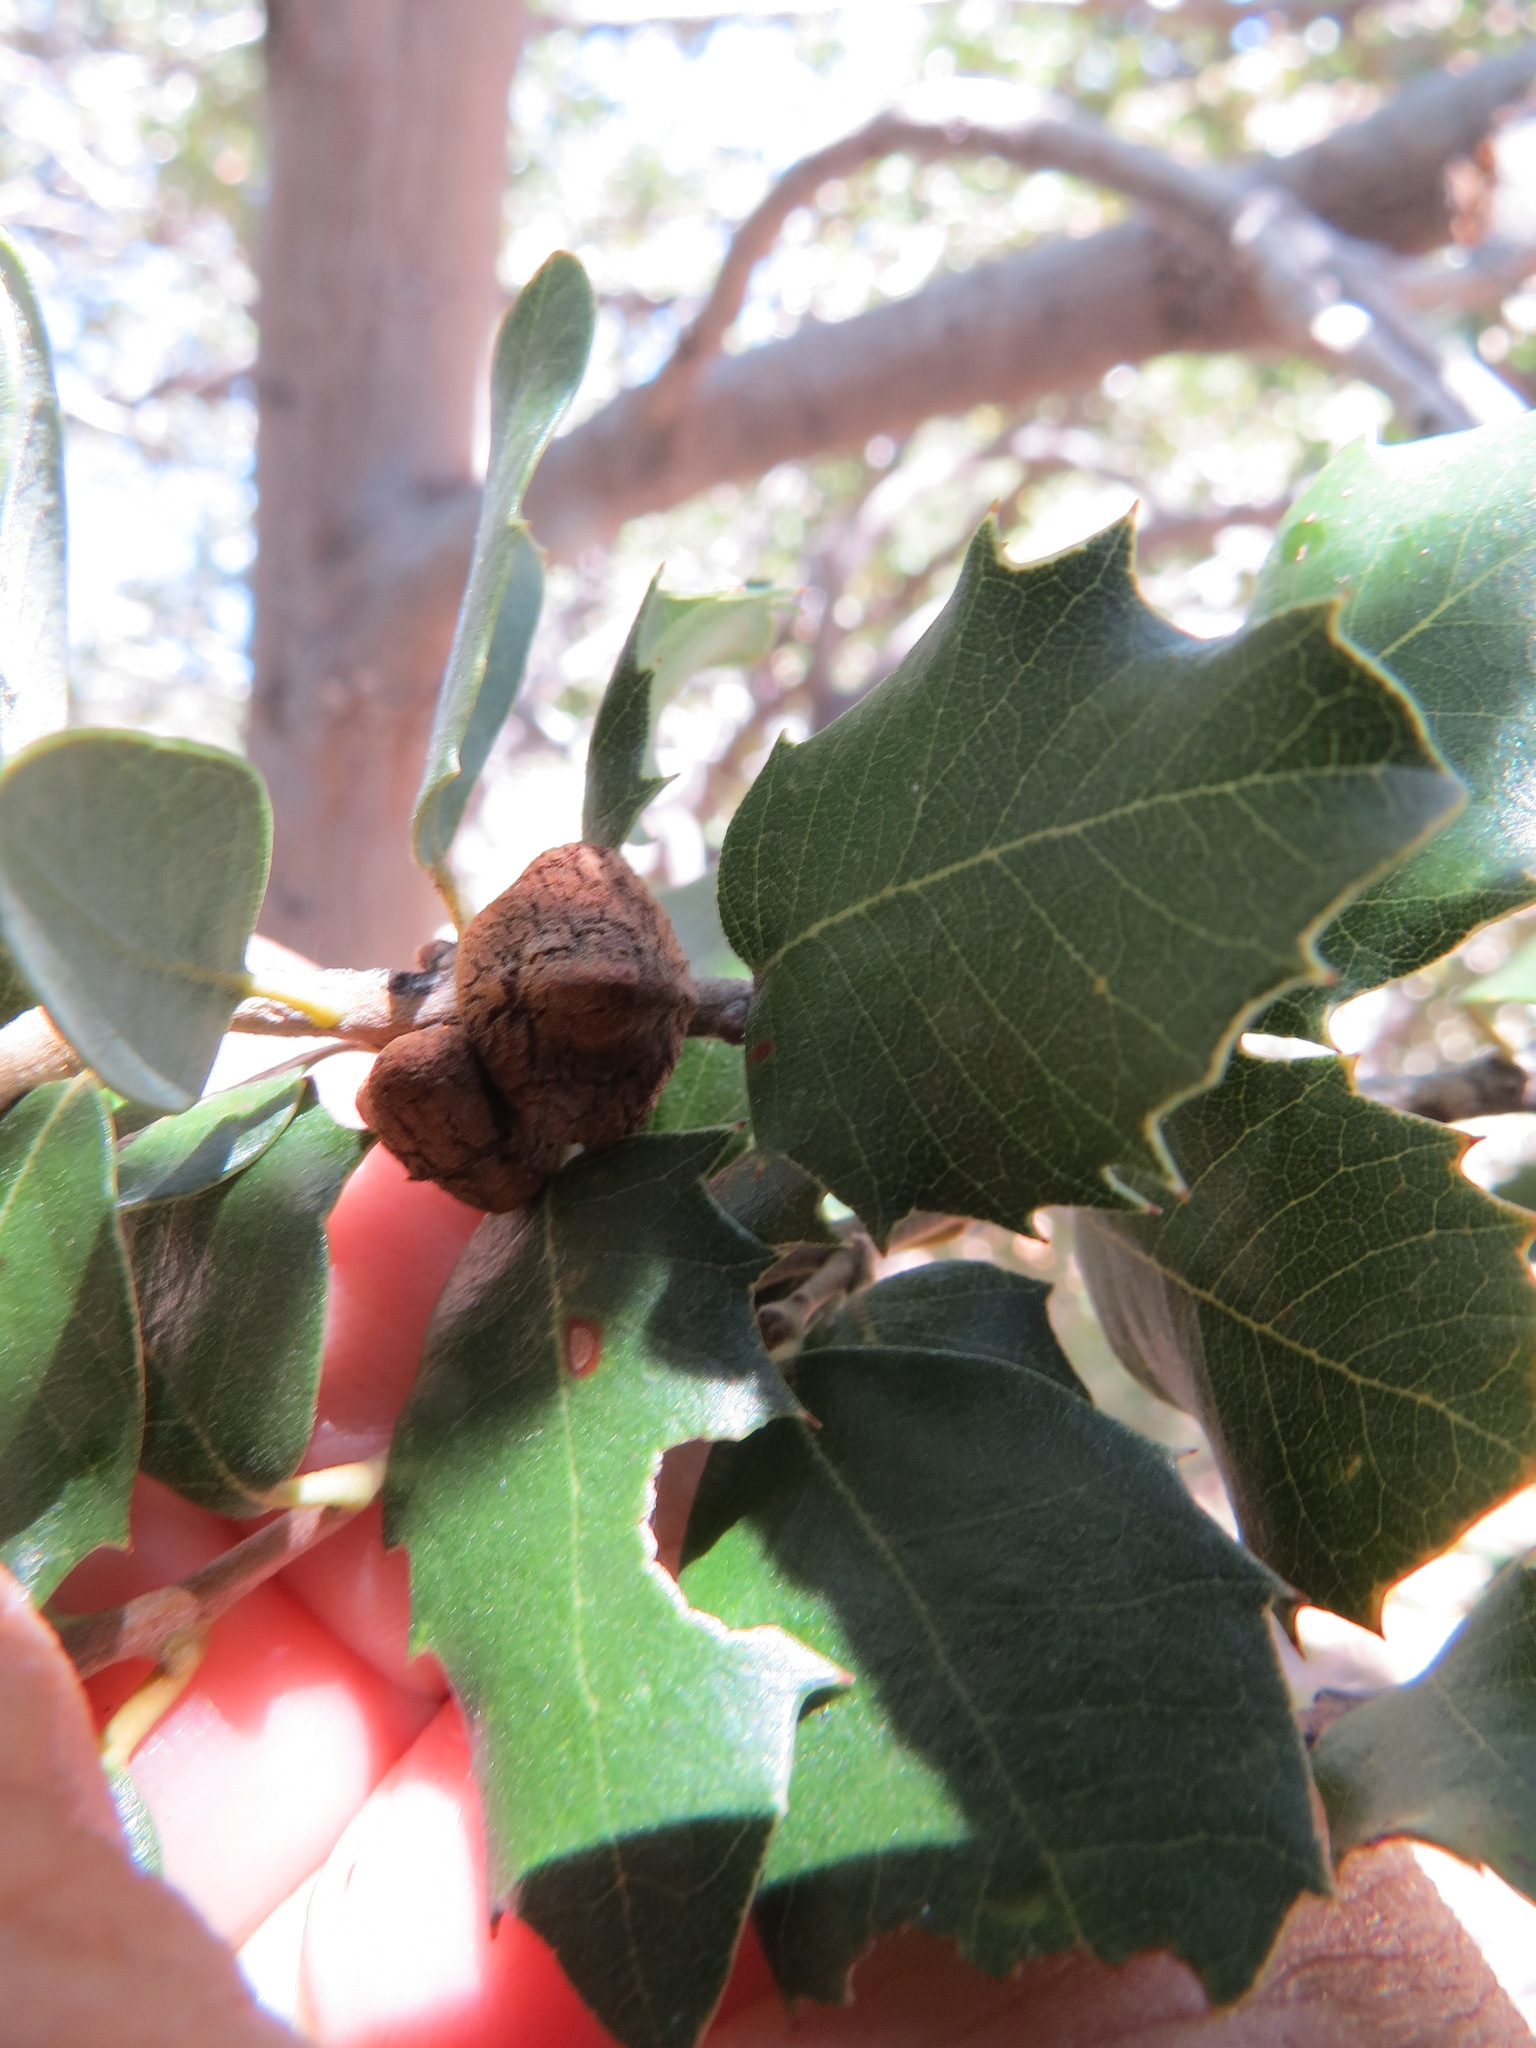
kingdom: Animalia
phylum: Arthropoda
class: Insecta
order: Hymenoptera
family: Cynipidae
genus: Disholandricus
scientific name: Disholandricus
